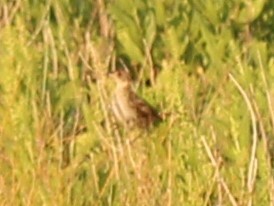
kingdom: Animalia
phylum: Chordata
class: Aves
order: Passeriformes
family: Passerellidae
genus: Ammospiza
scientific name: Ammospiza caudacuta
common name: Saltmarsh sparrow
